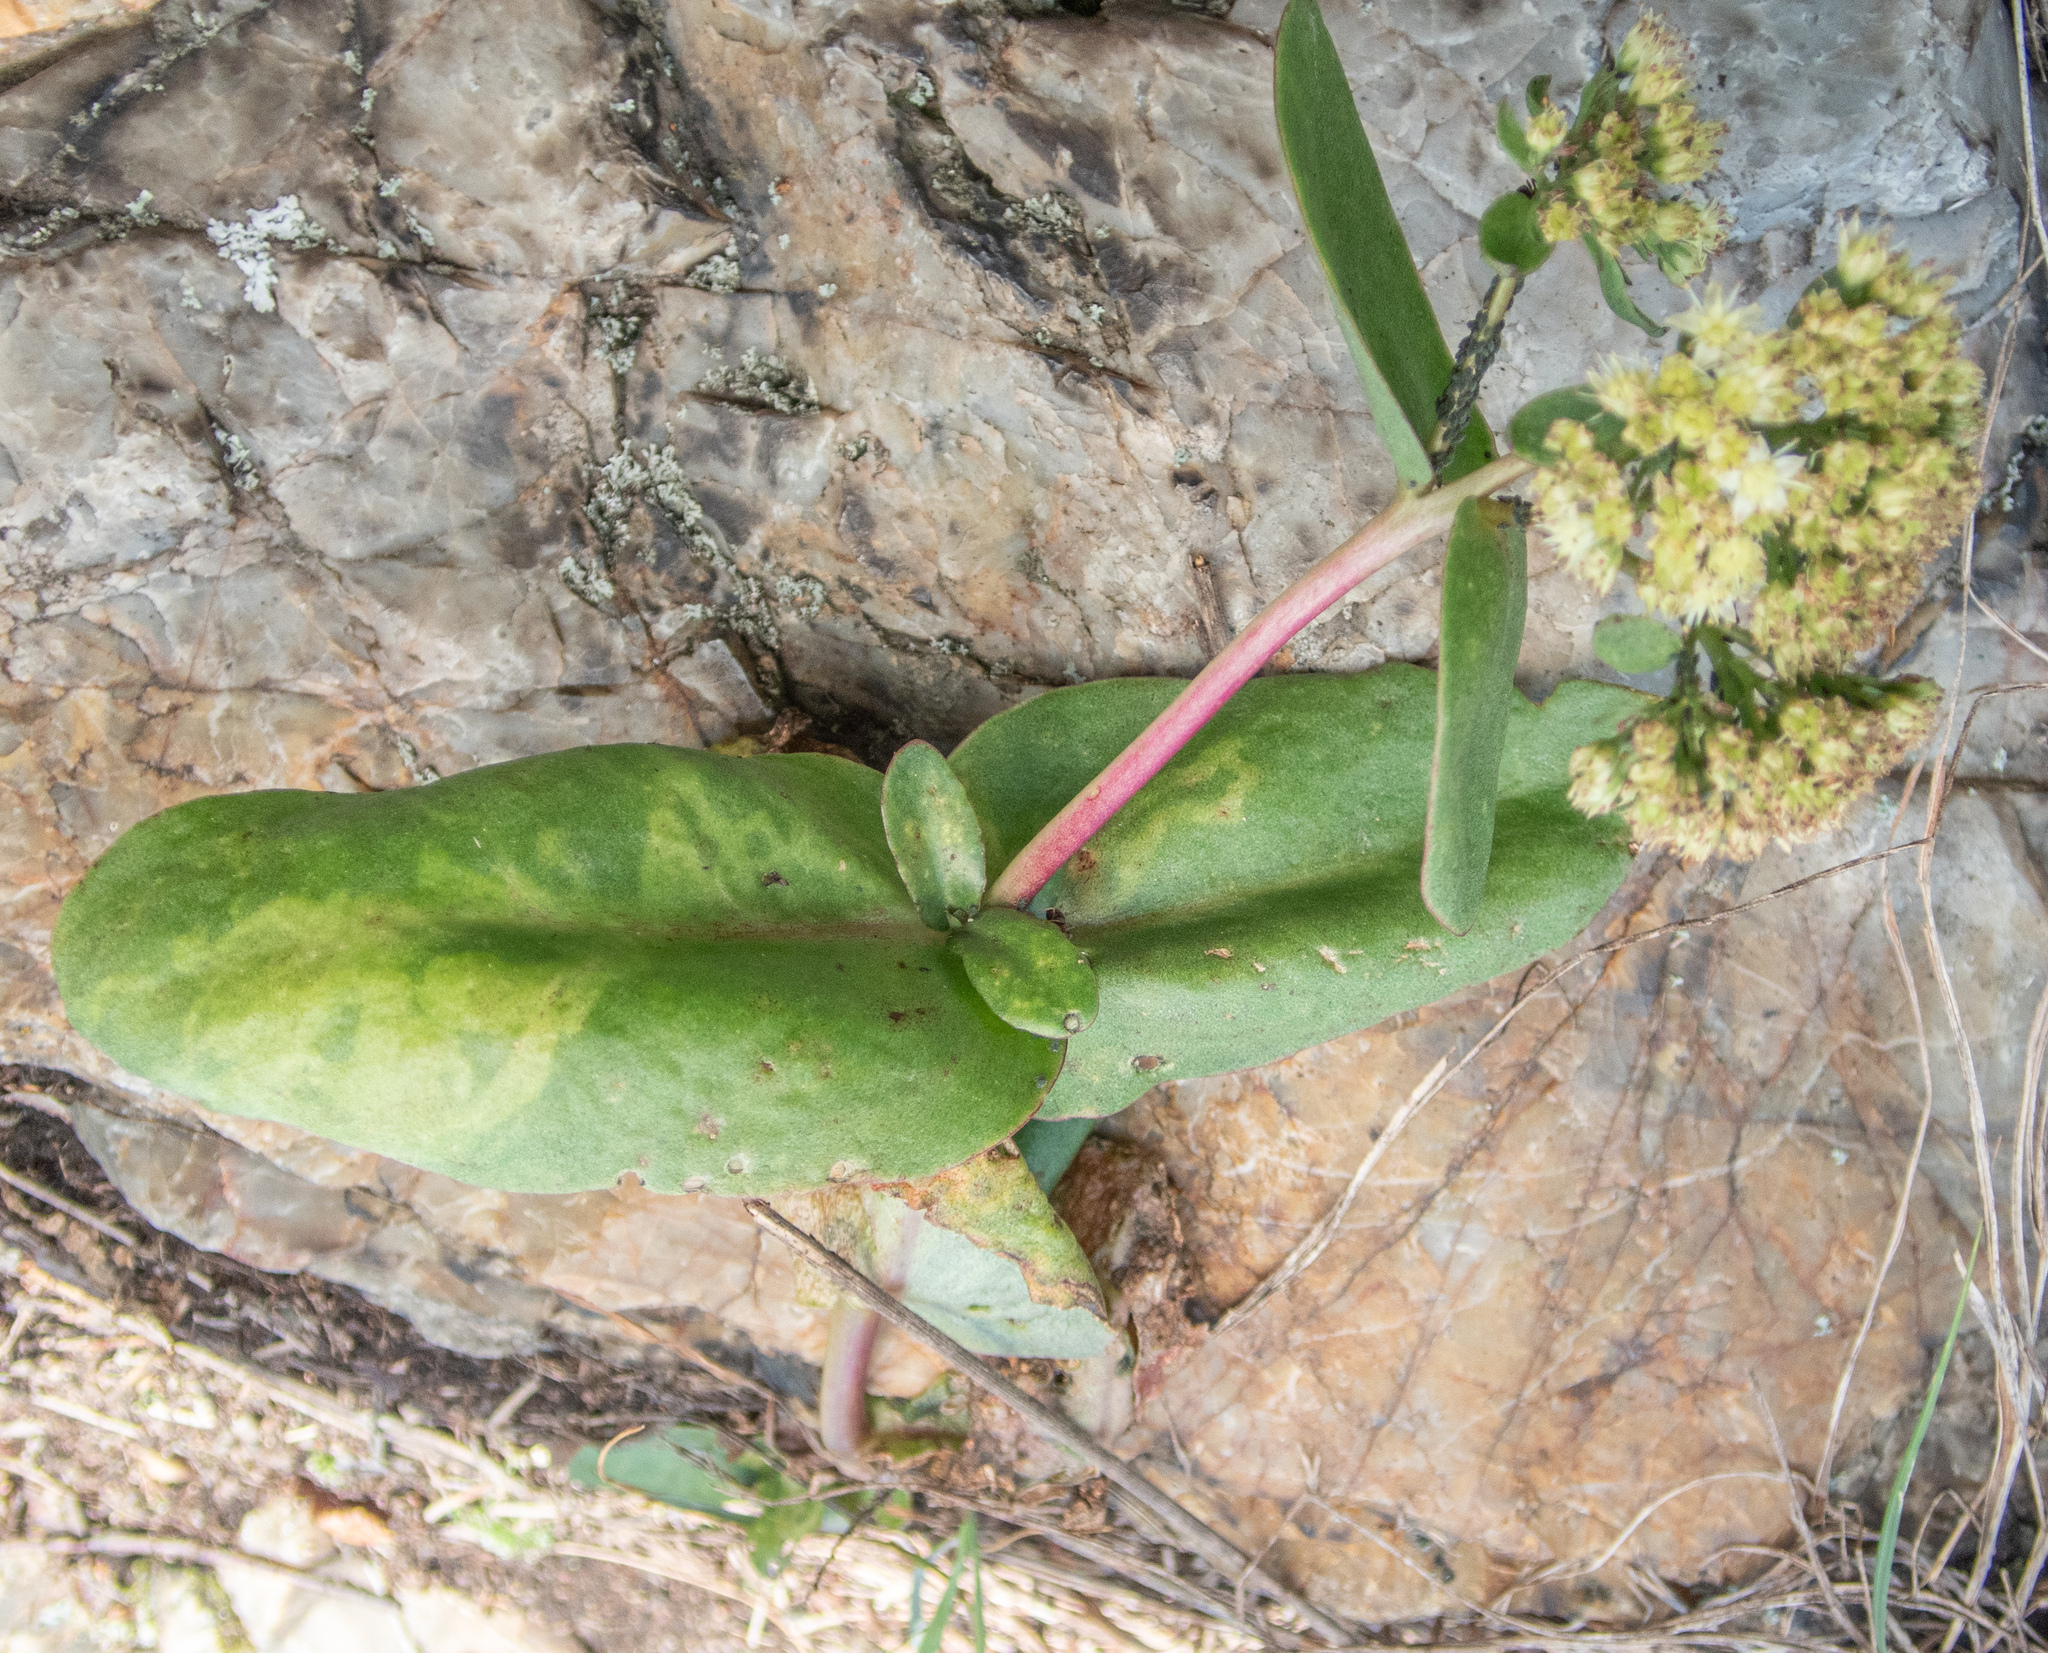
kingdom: Plantae
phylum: Tracheophyta
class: Magnoliopsida
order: Saxifragales
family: Crassulaceae
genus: Hylotelephium
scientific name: Hylotelephium maximum
